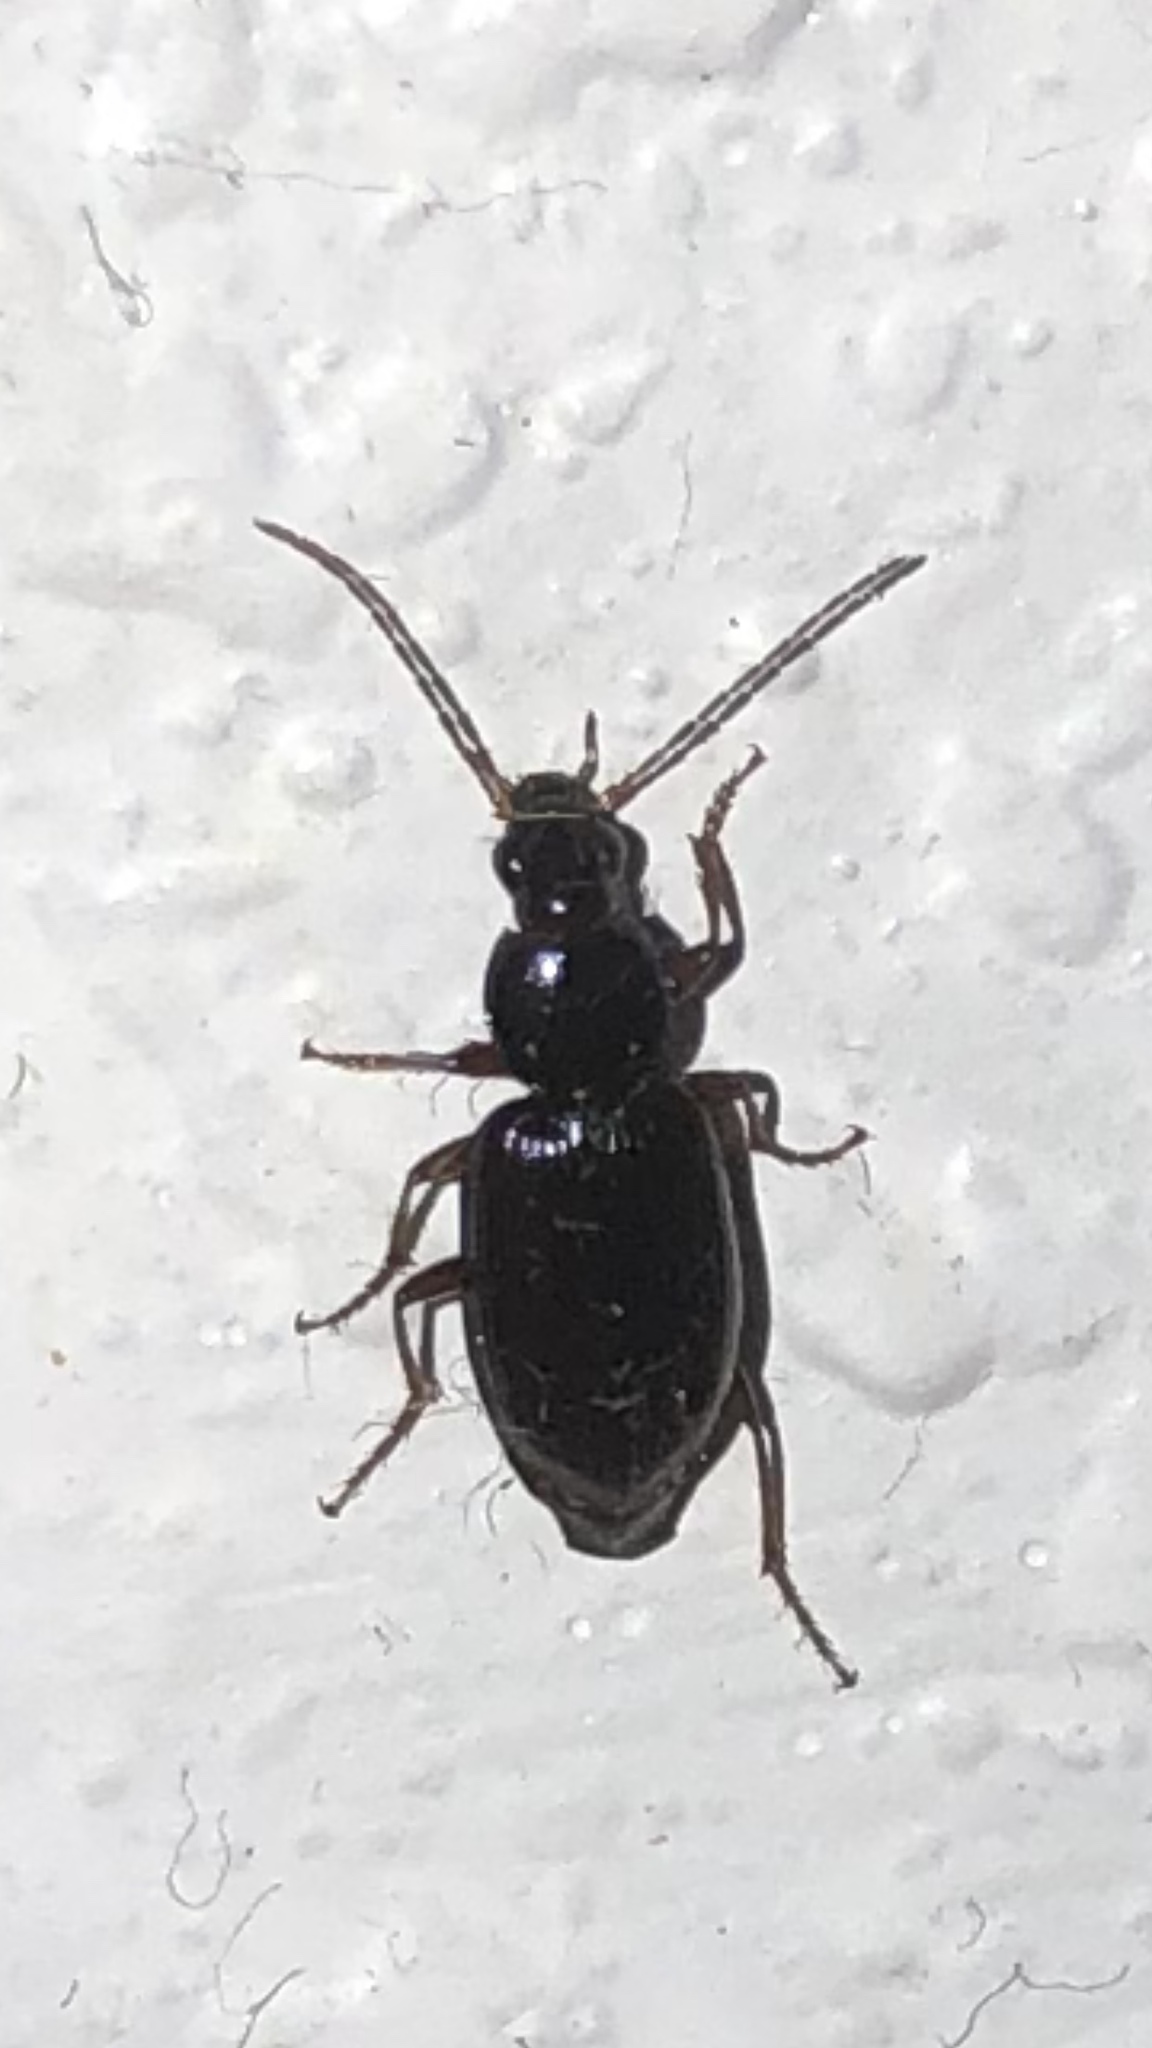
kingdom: Animalia
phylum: Arthropoda
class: Insecta
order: Coleoptera
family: Carabidae
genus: Agonum
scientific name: Agonum punctiforme
